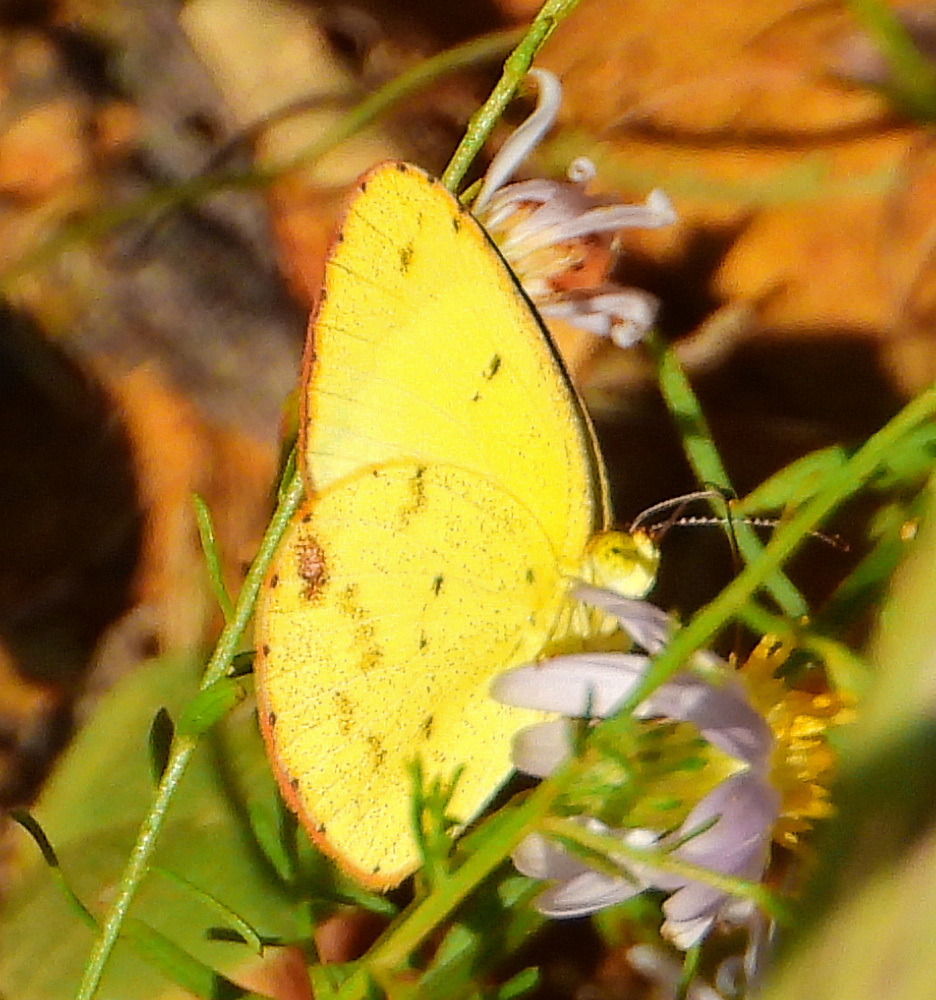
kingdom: Animalia
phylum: Arthropoda
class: Insecta
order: Lepidoptera
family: Pieridae
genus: Pyrisitia
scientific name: Pyrisitia lisa
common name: Little yellow
